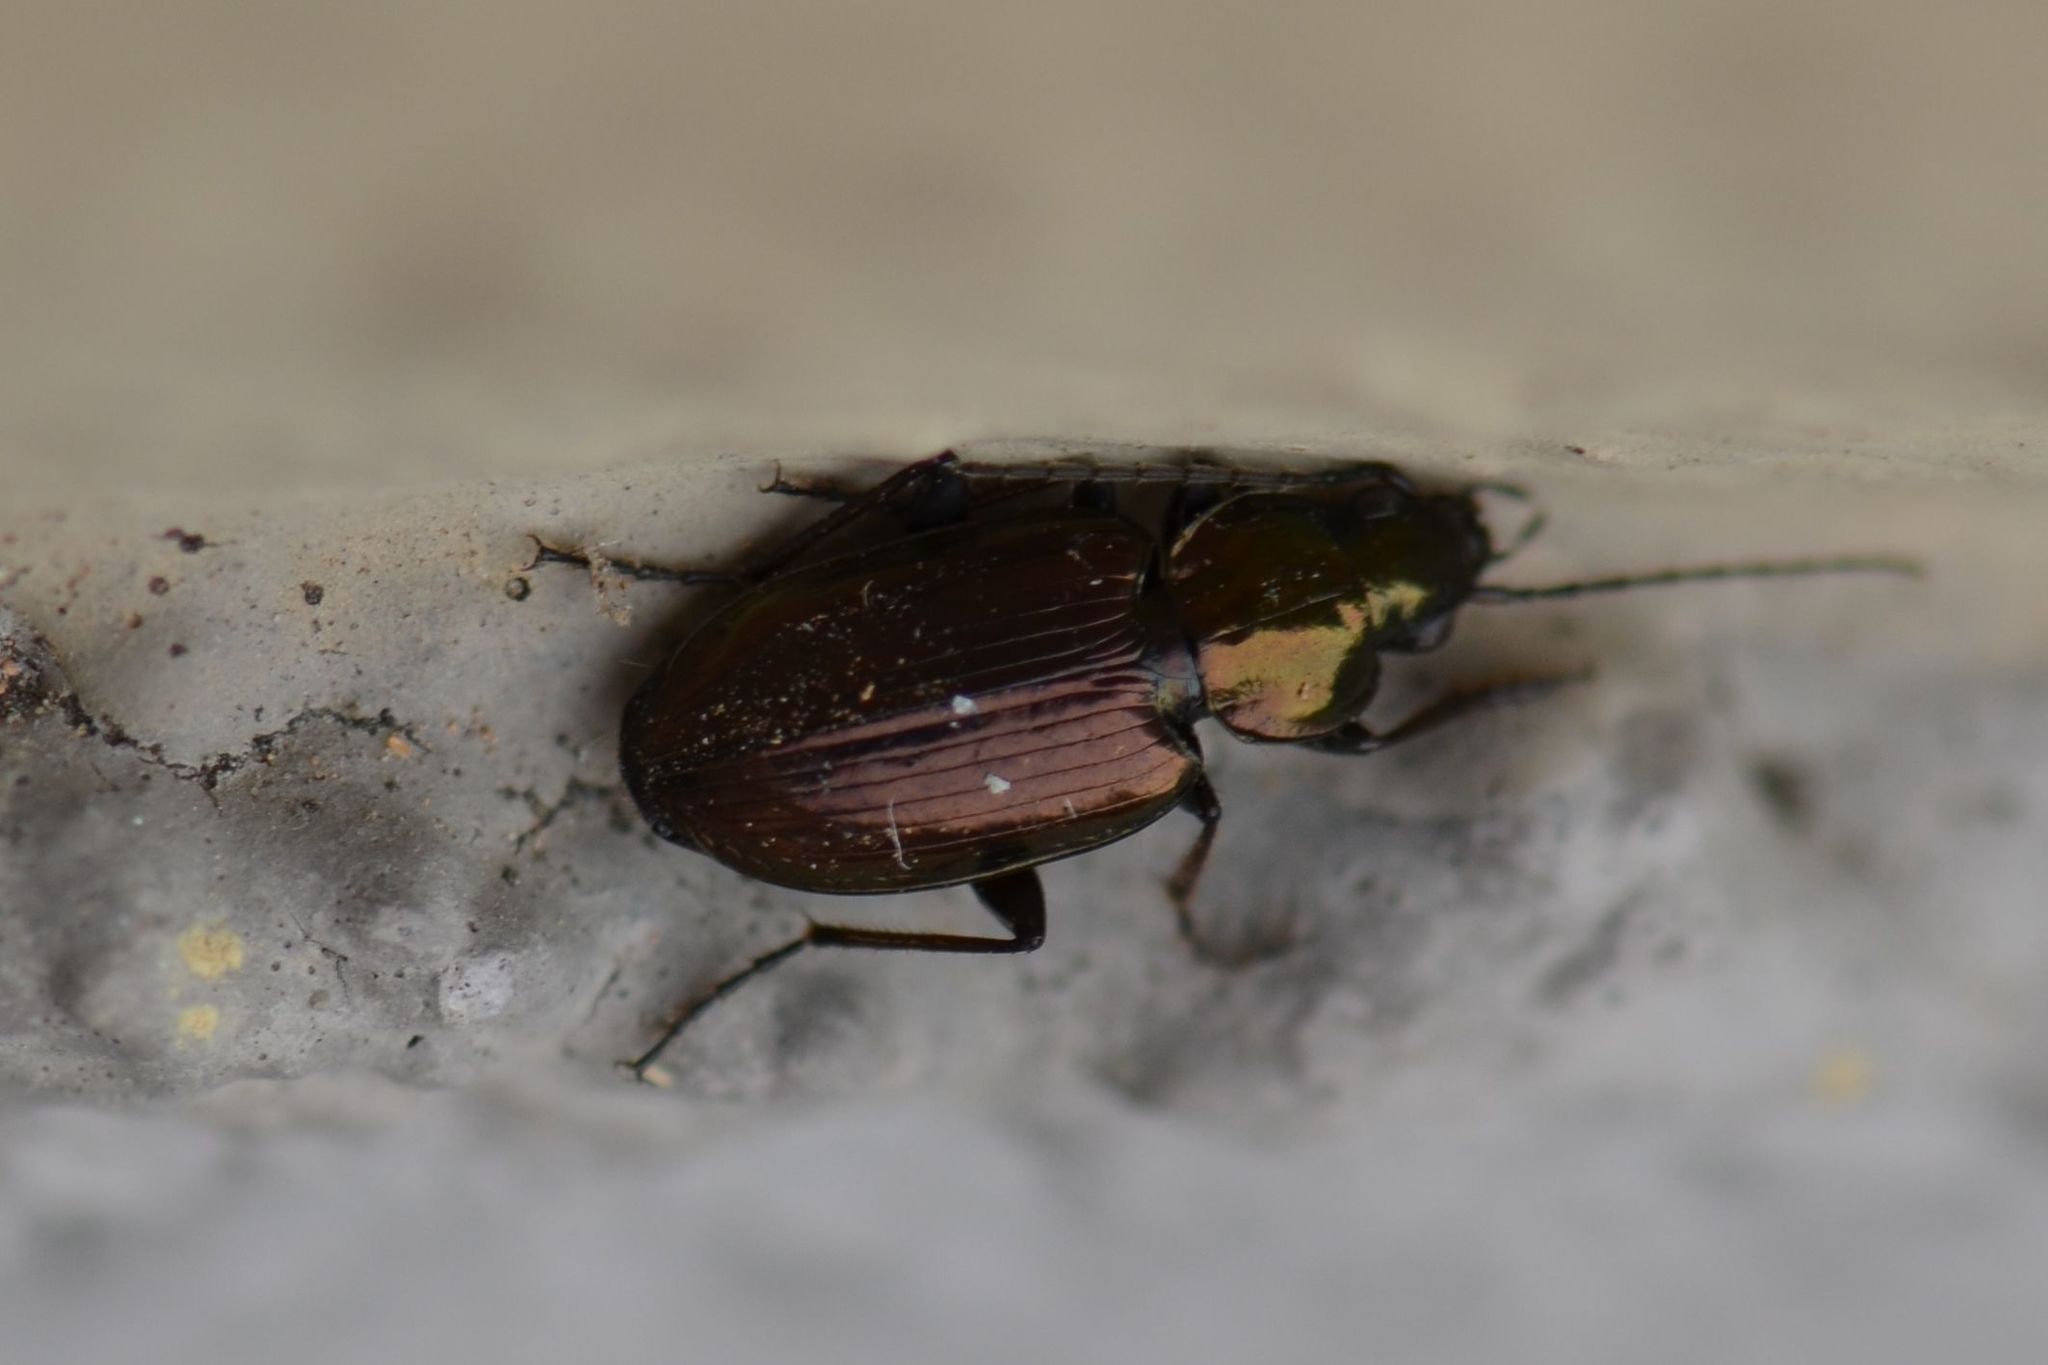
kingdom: Animalia
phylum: Arthropoda
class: Insecta
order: Coleoptera
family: Carabidae
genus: Agonum
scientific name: Agonum muelleri
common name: Müller's harp ground beetle
